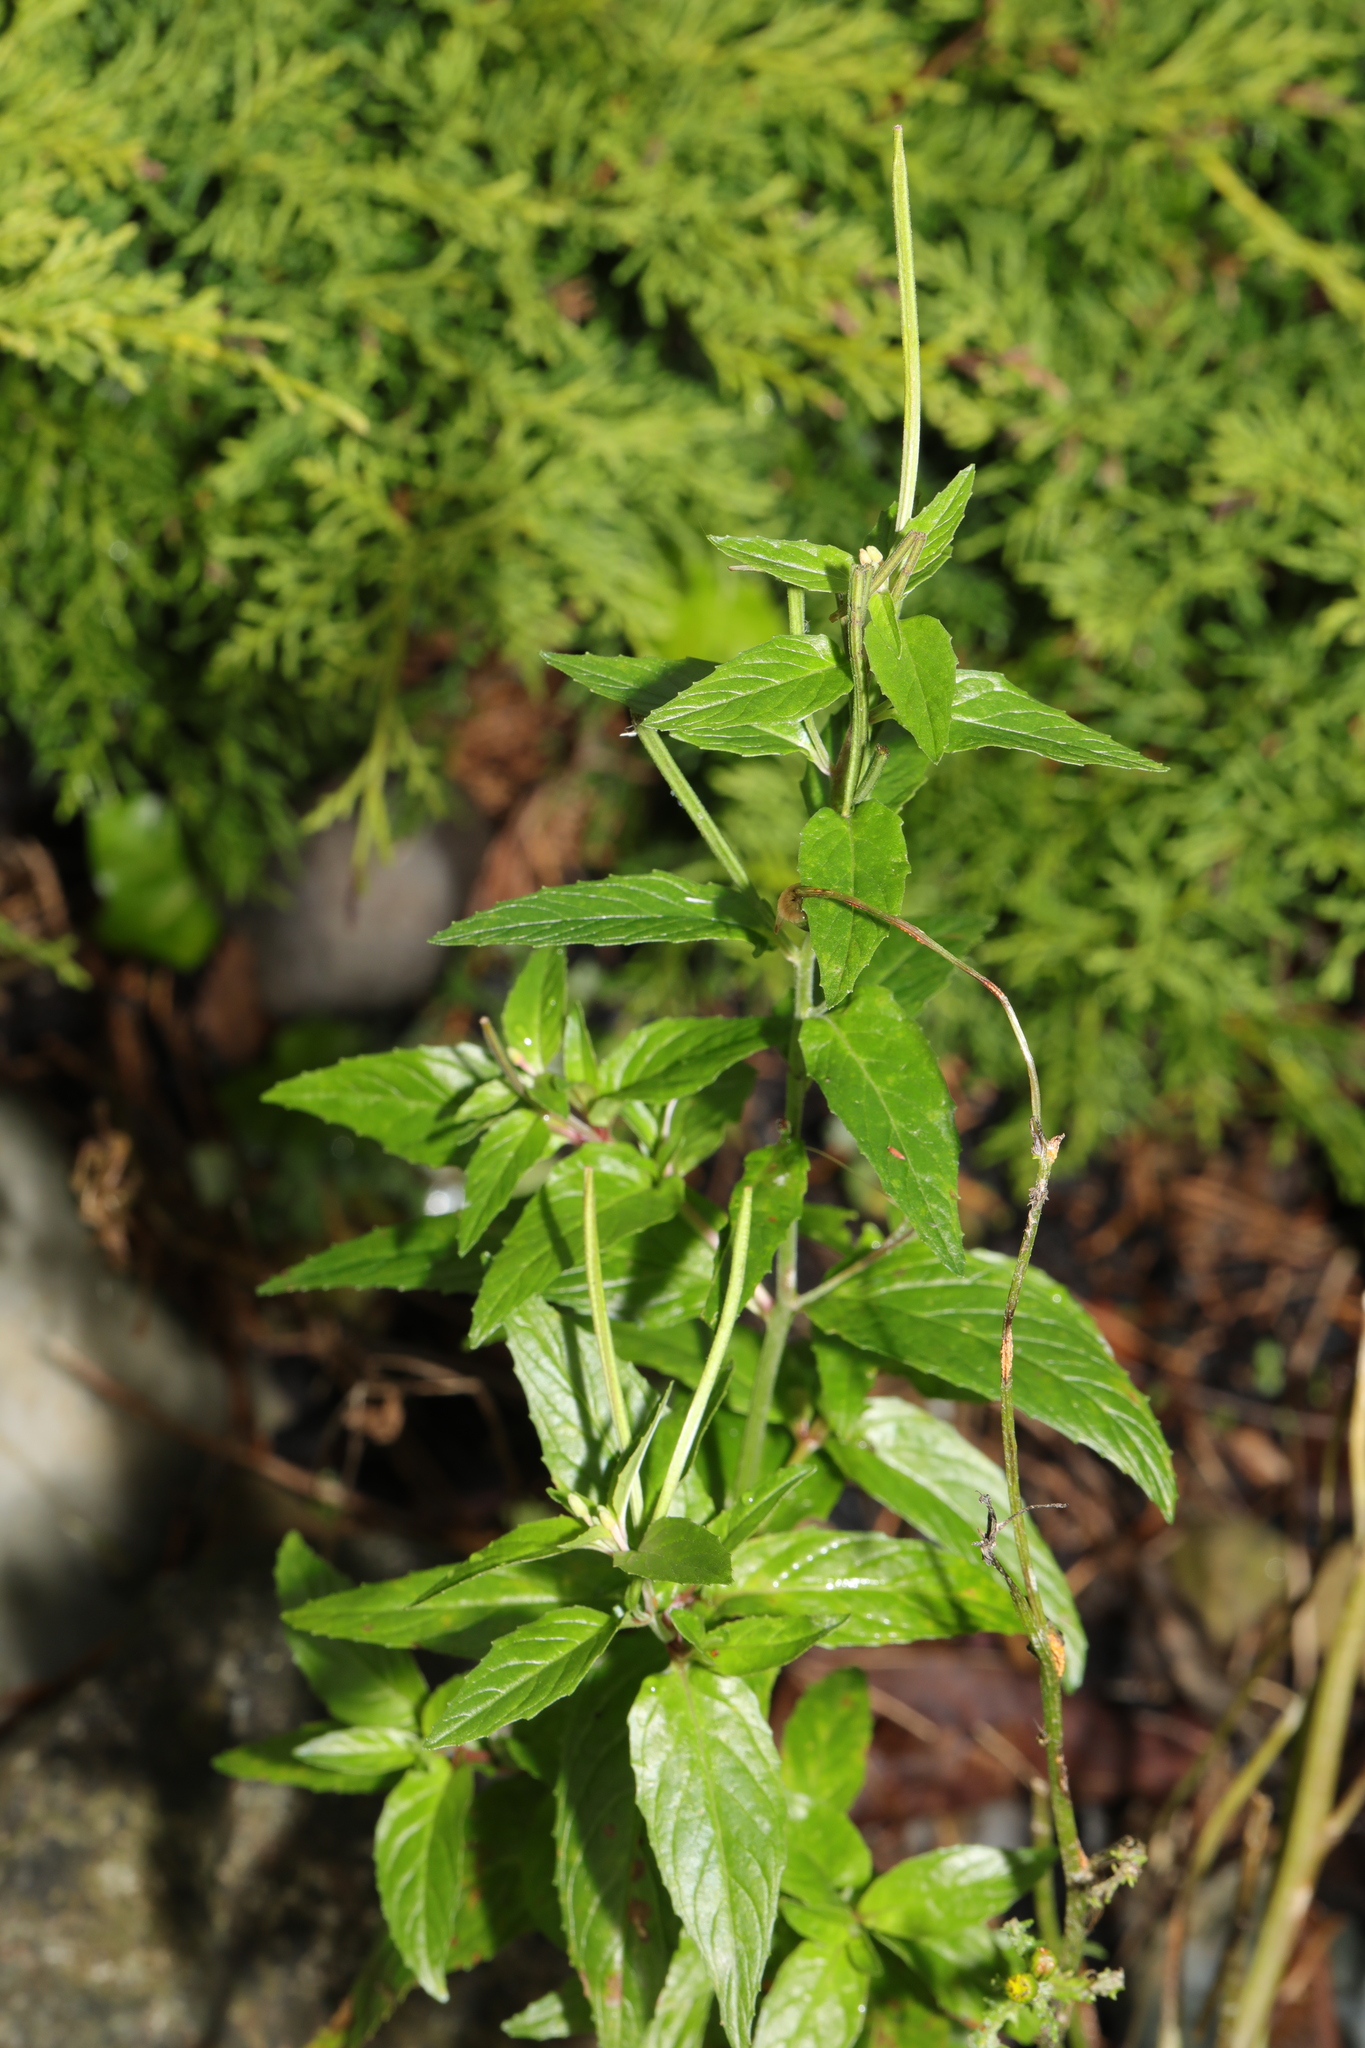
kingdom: Plantae
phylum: Tracheophyta
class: Magnoliopsida
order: Myrtales
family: Onagraceae
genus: Epilobium
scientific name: Epilobium ciliatum
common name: American willowherb
